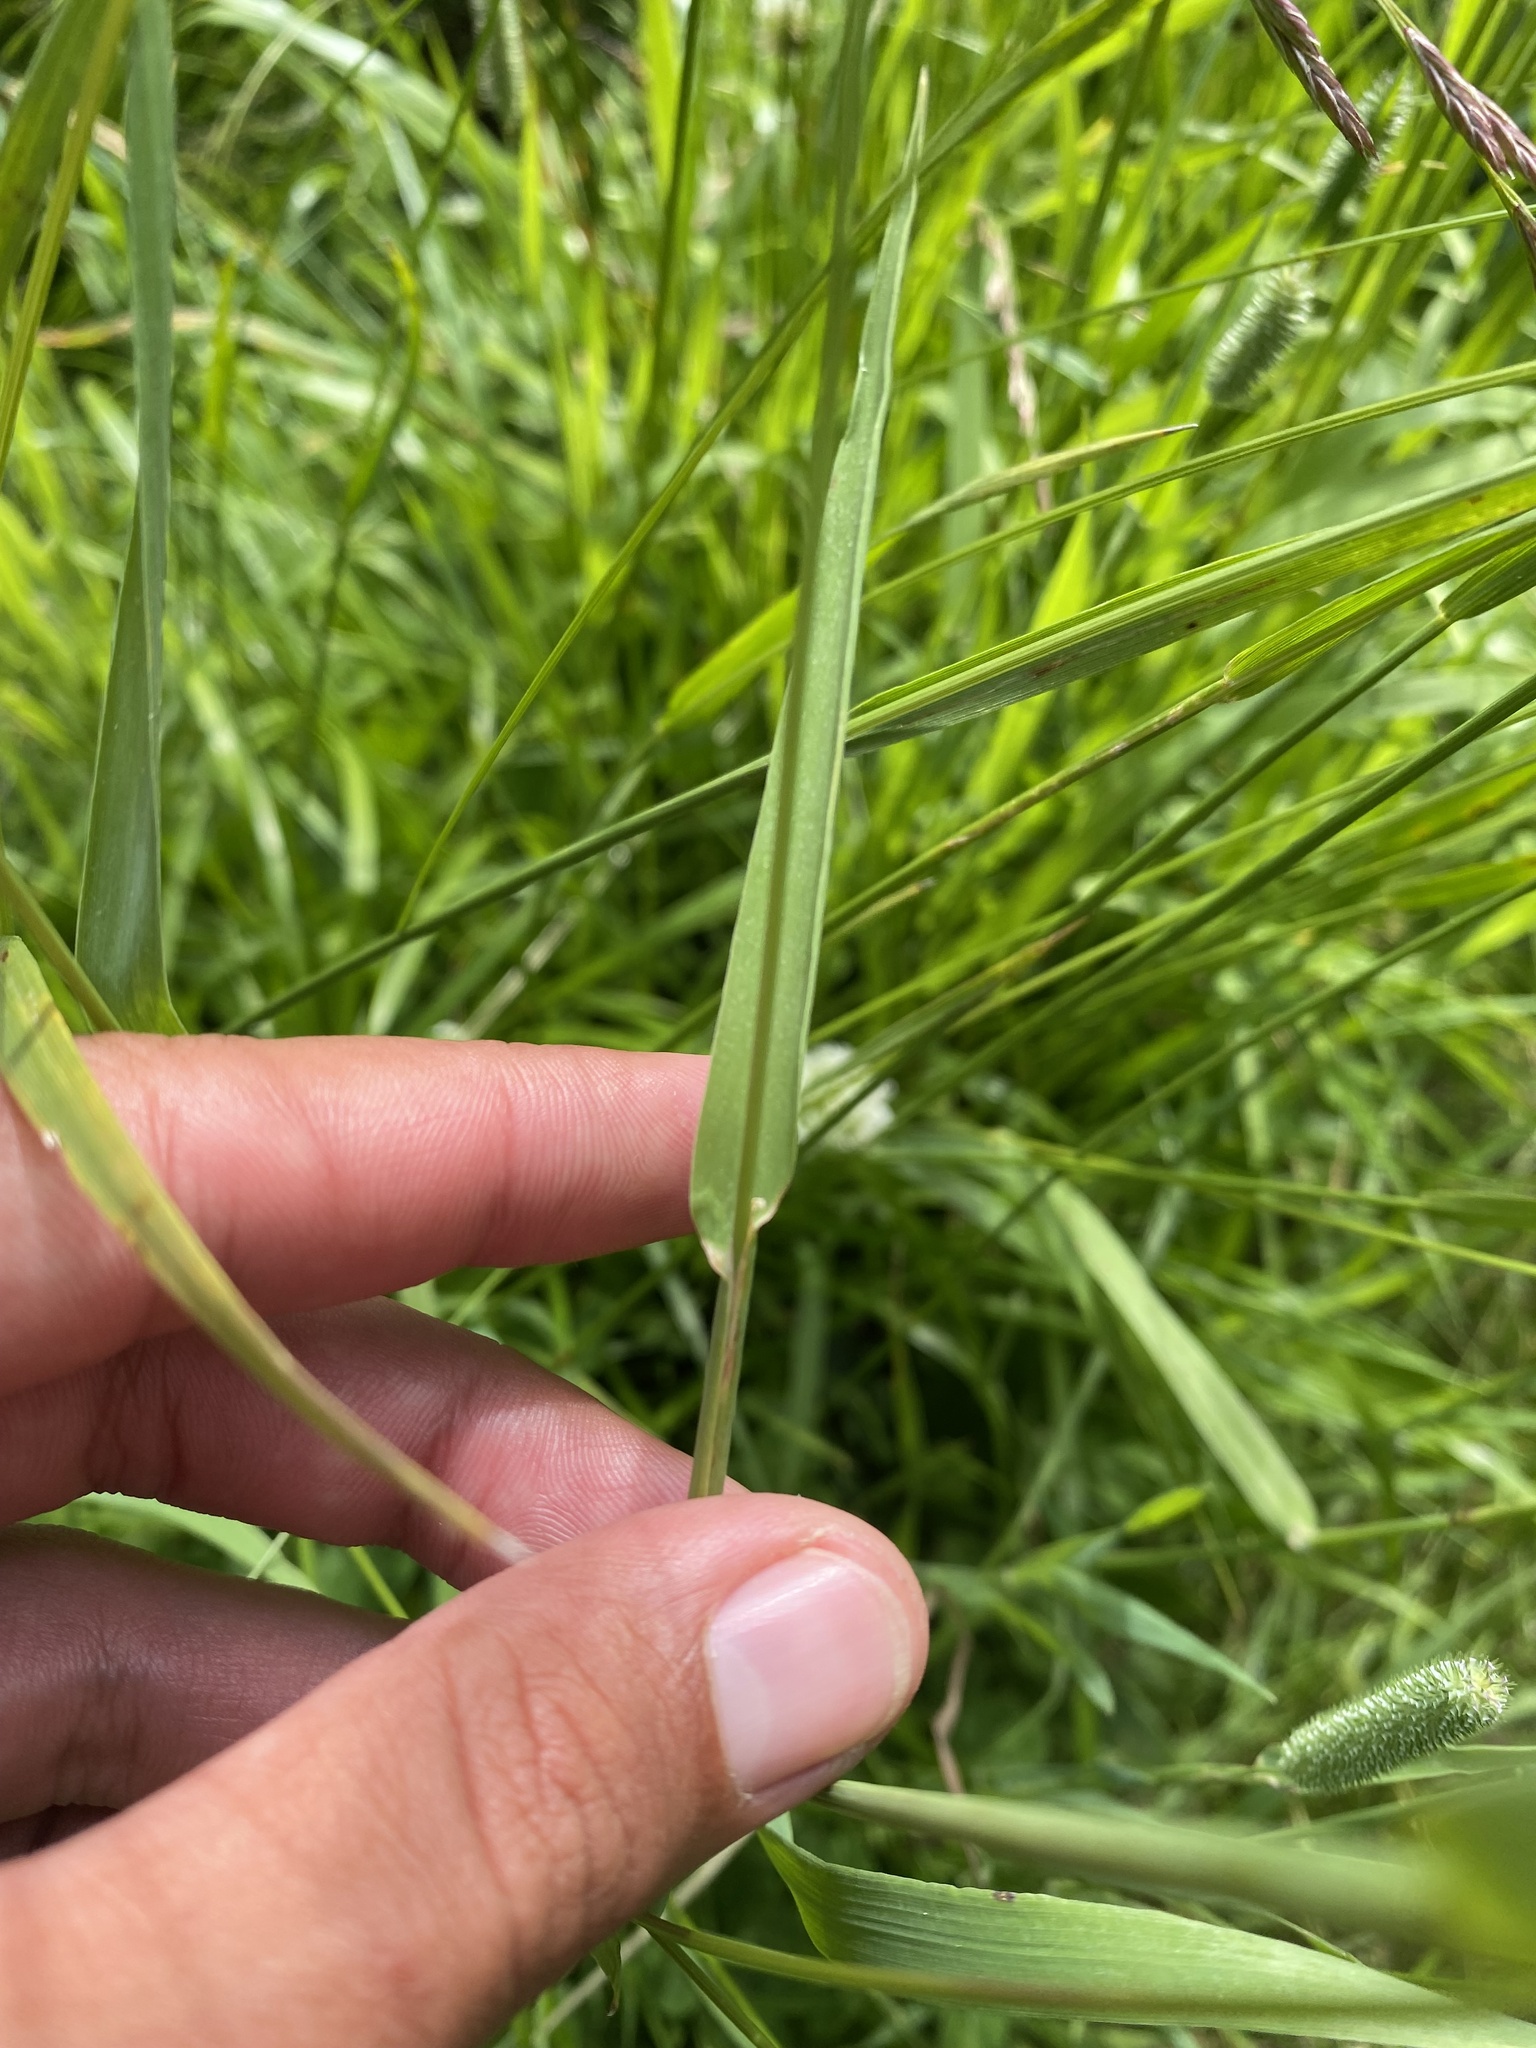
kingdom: Plantae
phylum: Tracheophyta
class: Liliopsida
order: Poales
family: Poaceae
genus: Phleum
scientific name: Phleum pratense
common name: Timothy grass
